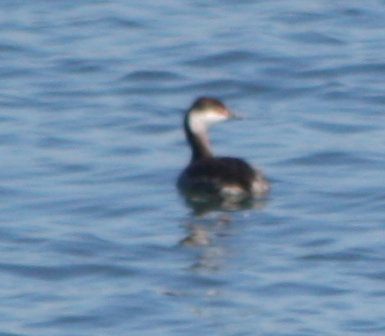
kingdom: Animalia
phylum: Chordata
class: Aves
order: Podicipediformes
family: Podicipedidae
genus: Podiceps
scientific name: Podiceps auritus
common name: Horned grebe
